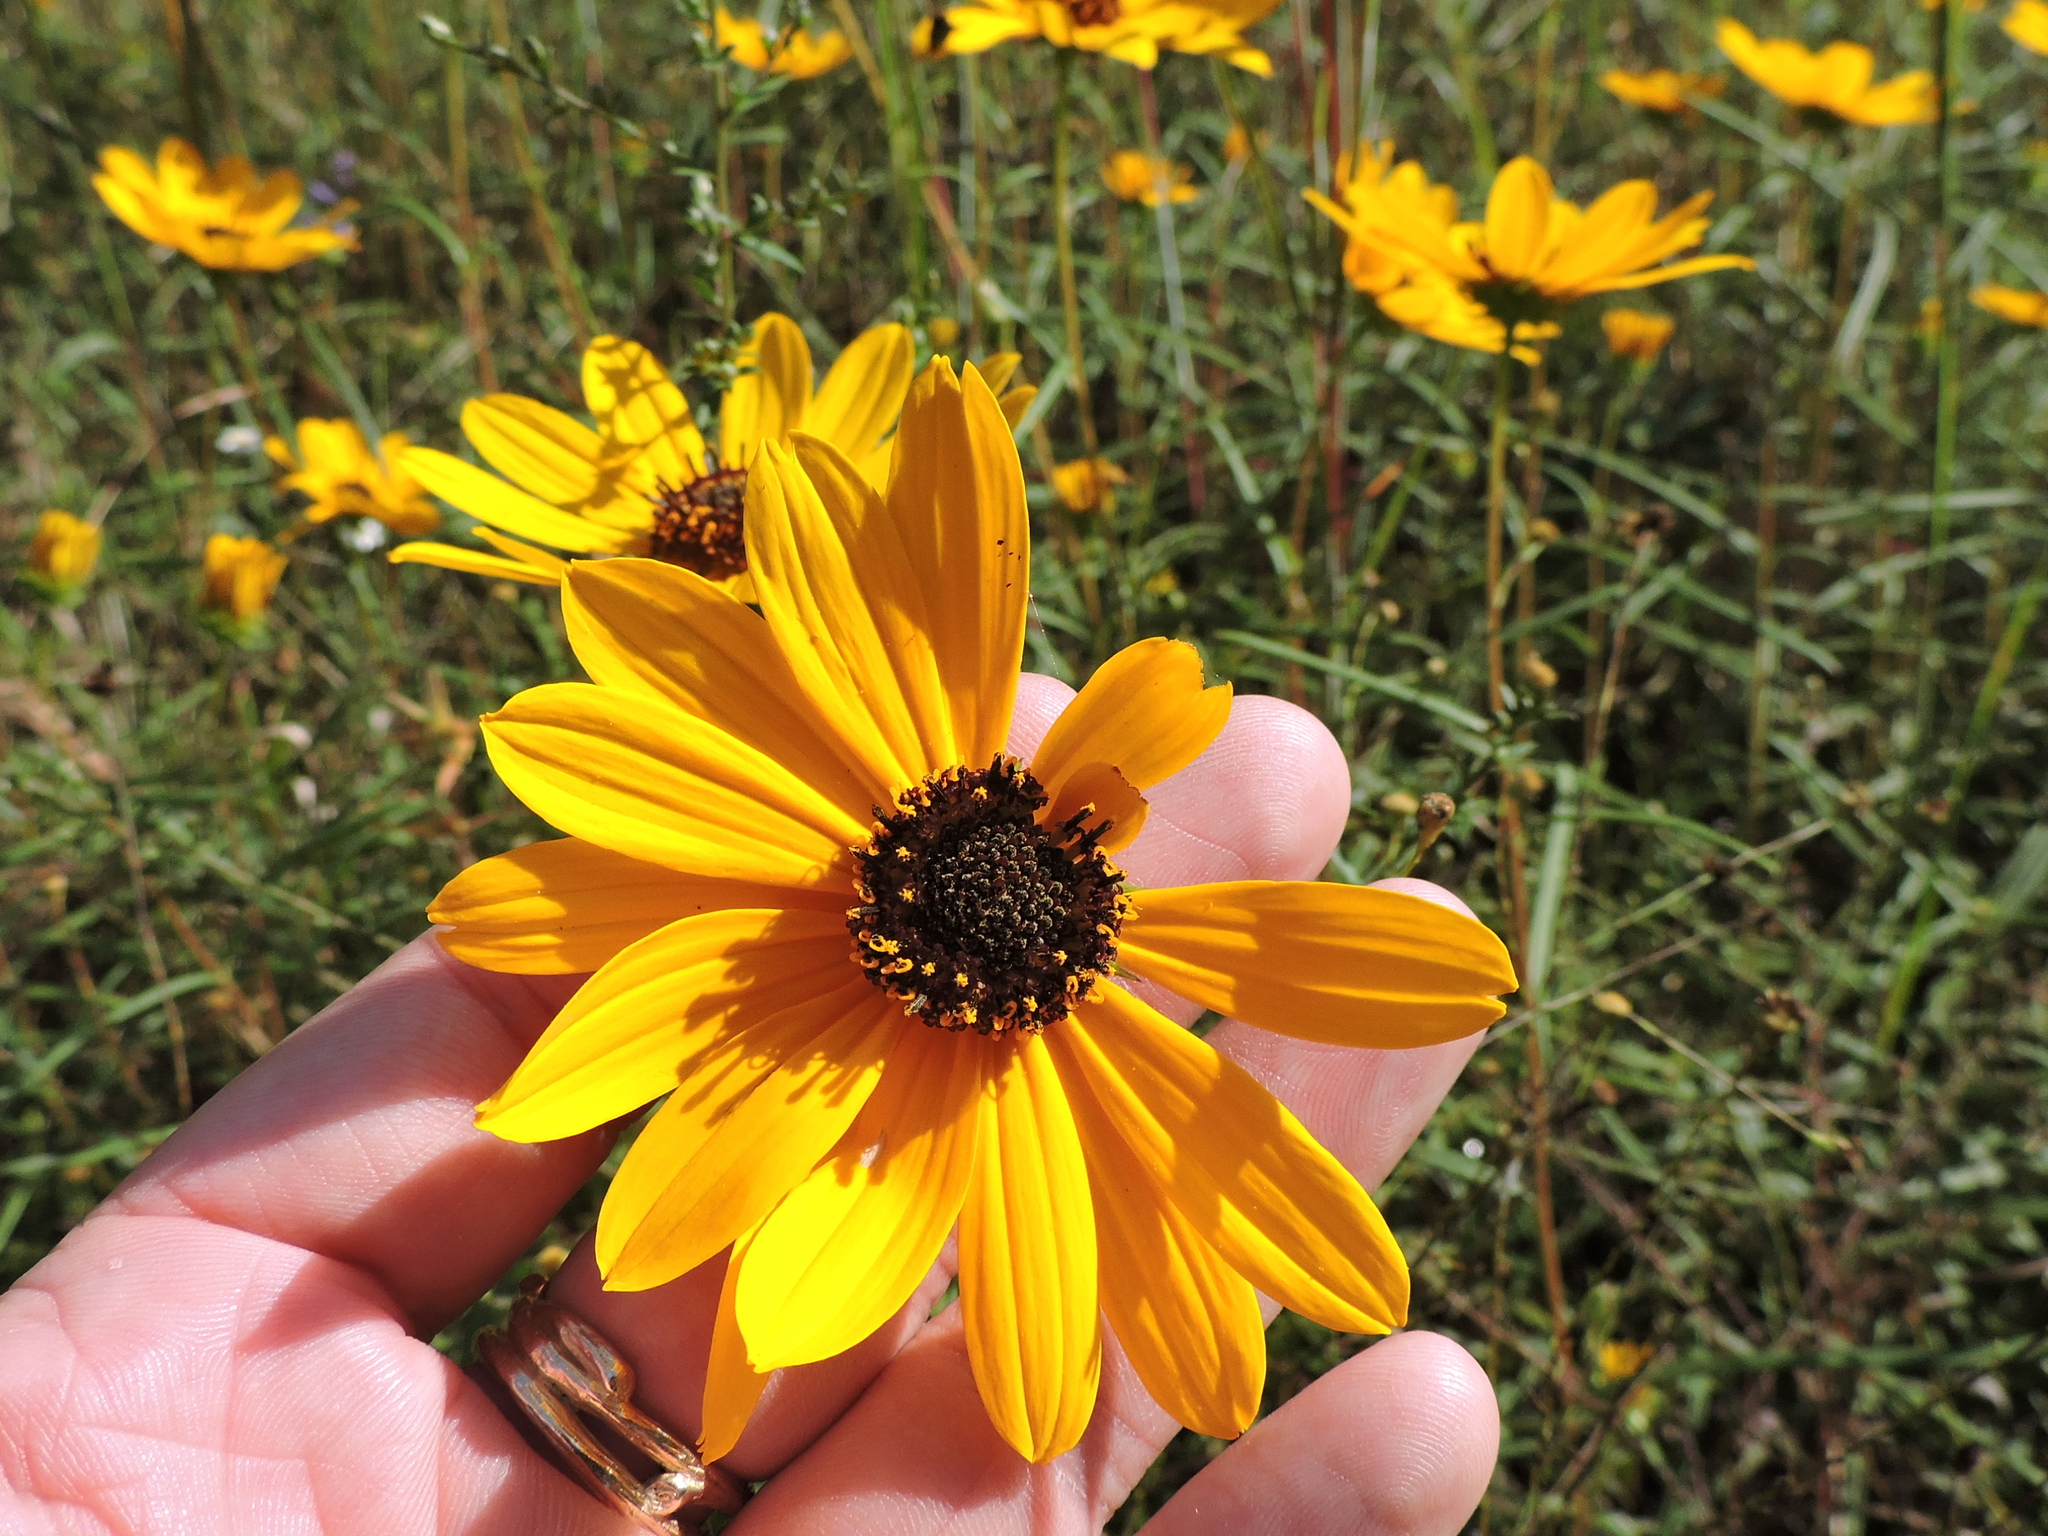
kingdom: Plantae
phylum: Tracheophyta
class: Magnoliopsida
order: Asterales
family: Asteraceae
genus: Helianthus
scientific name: Helianthus angustifolius
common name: Swamp sunflower
